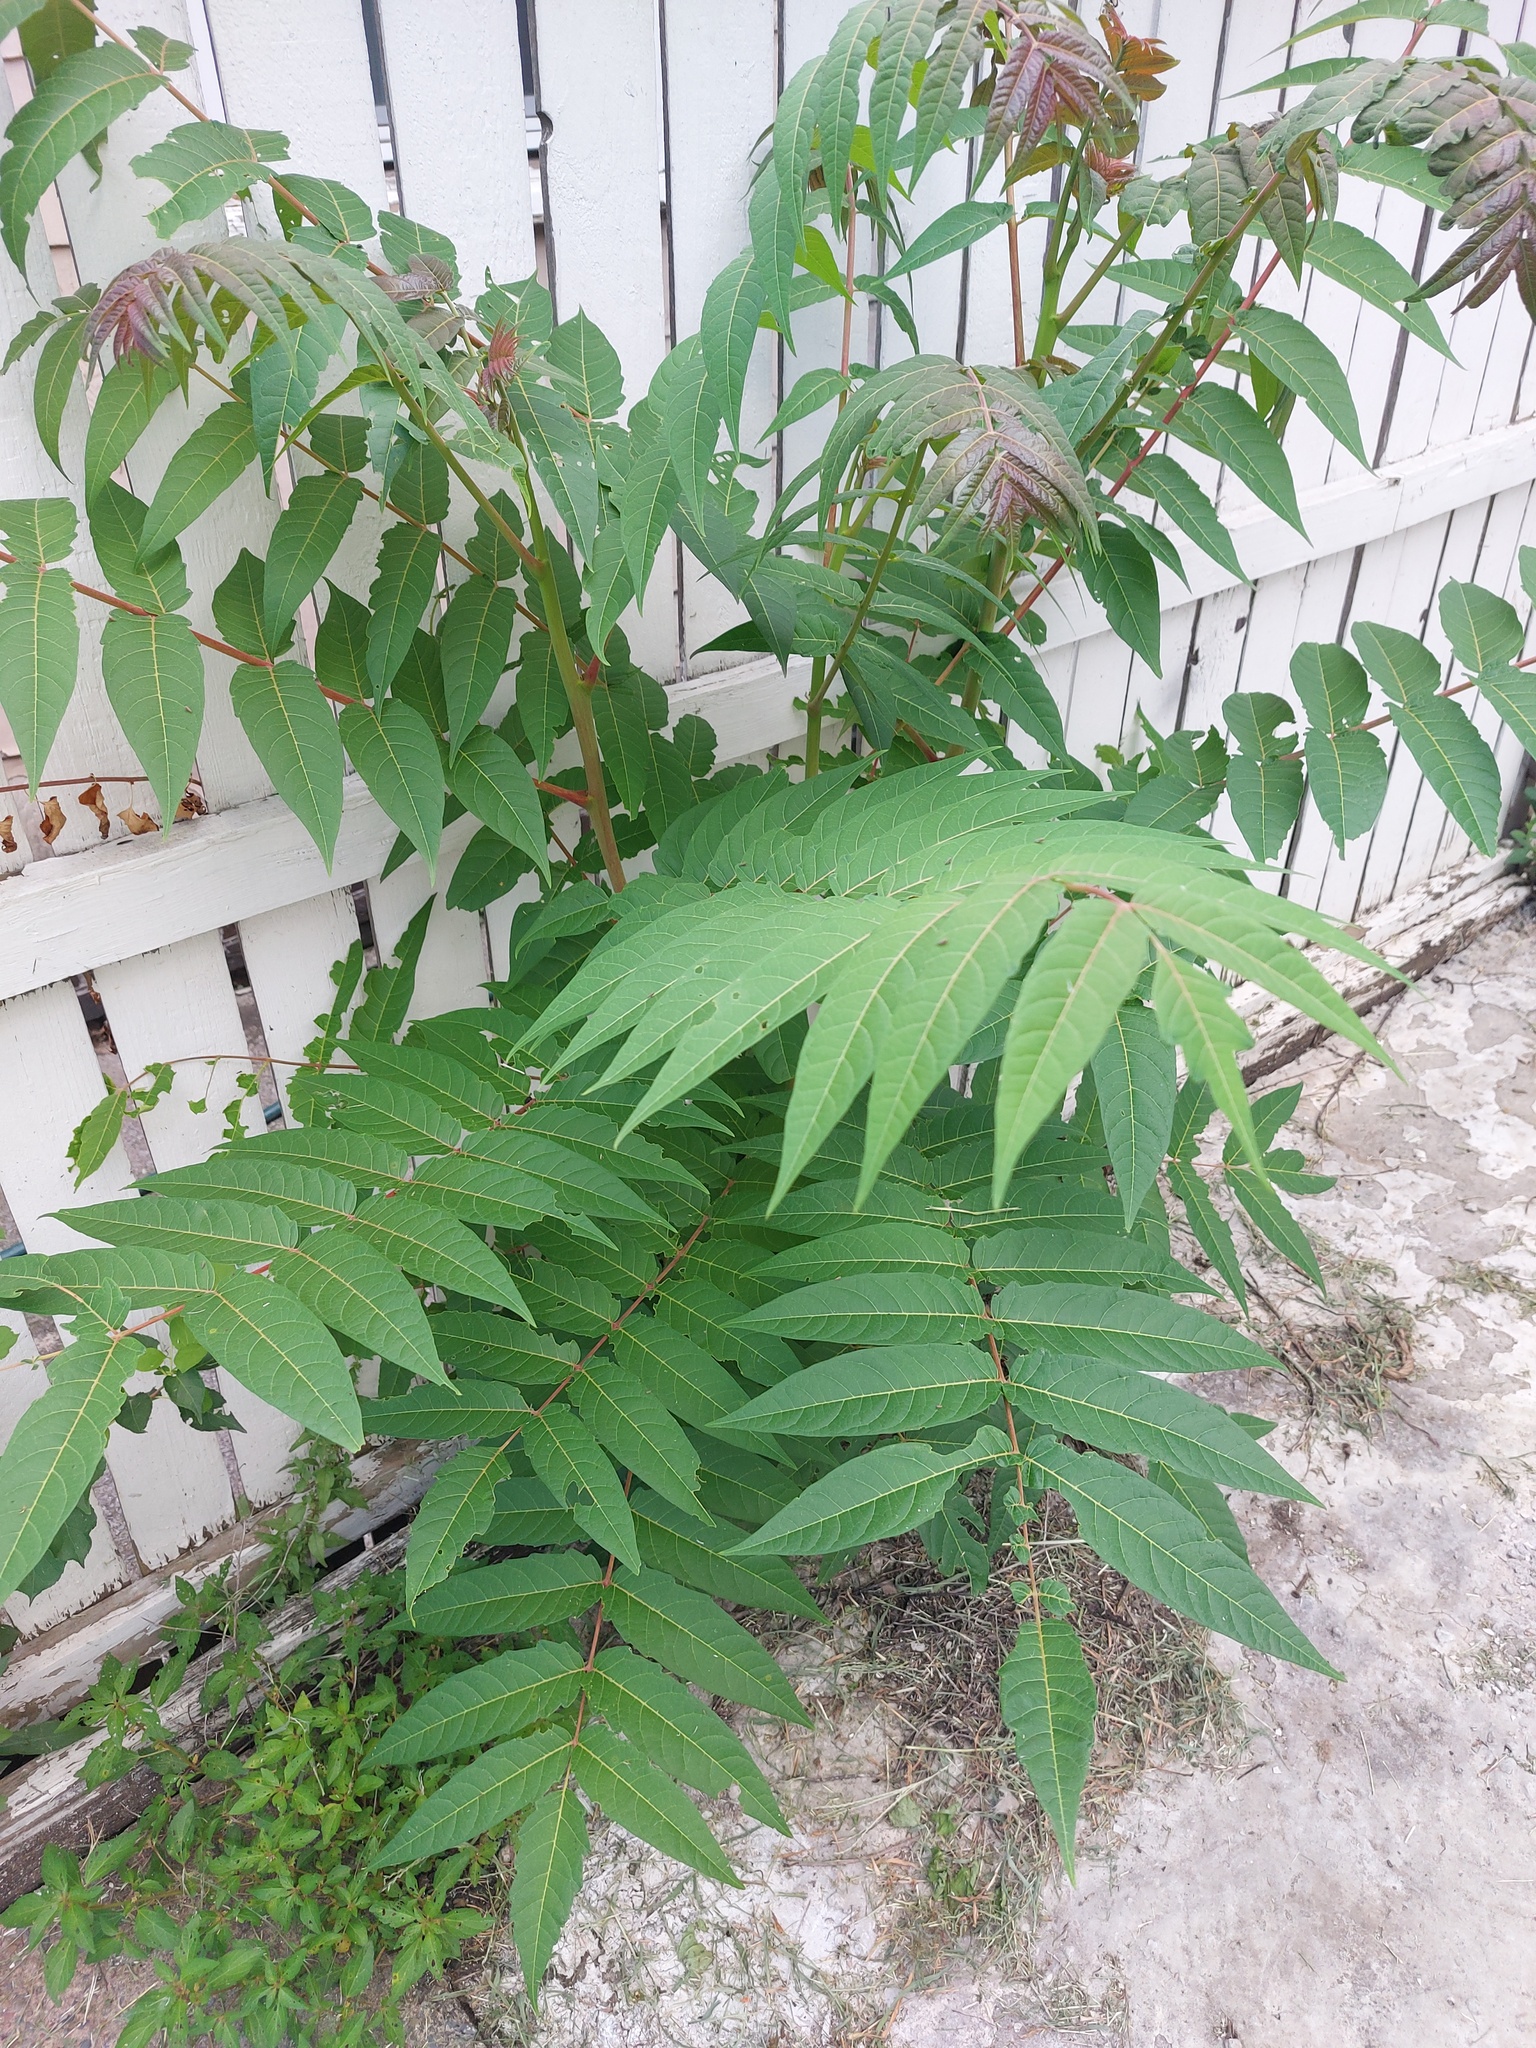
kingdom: Plantae
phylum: Tracheophyta
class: Magnoliopsida
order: Sapindales
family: Simaroubaceae
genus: Ailanthus
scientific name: Ailanthus altissima
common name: Tree-of-heaven
